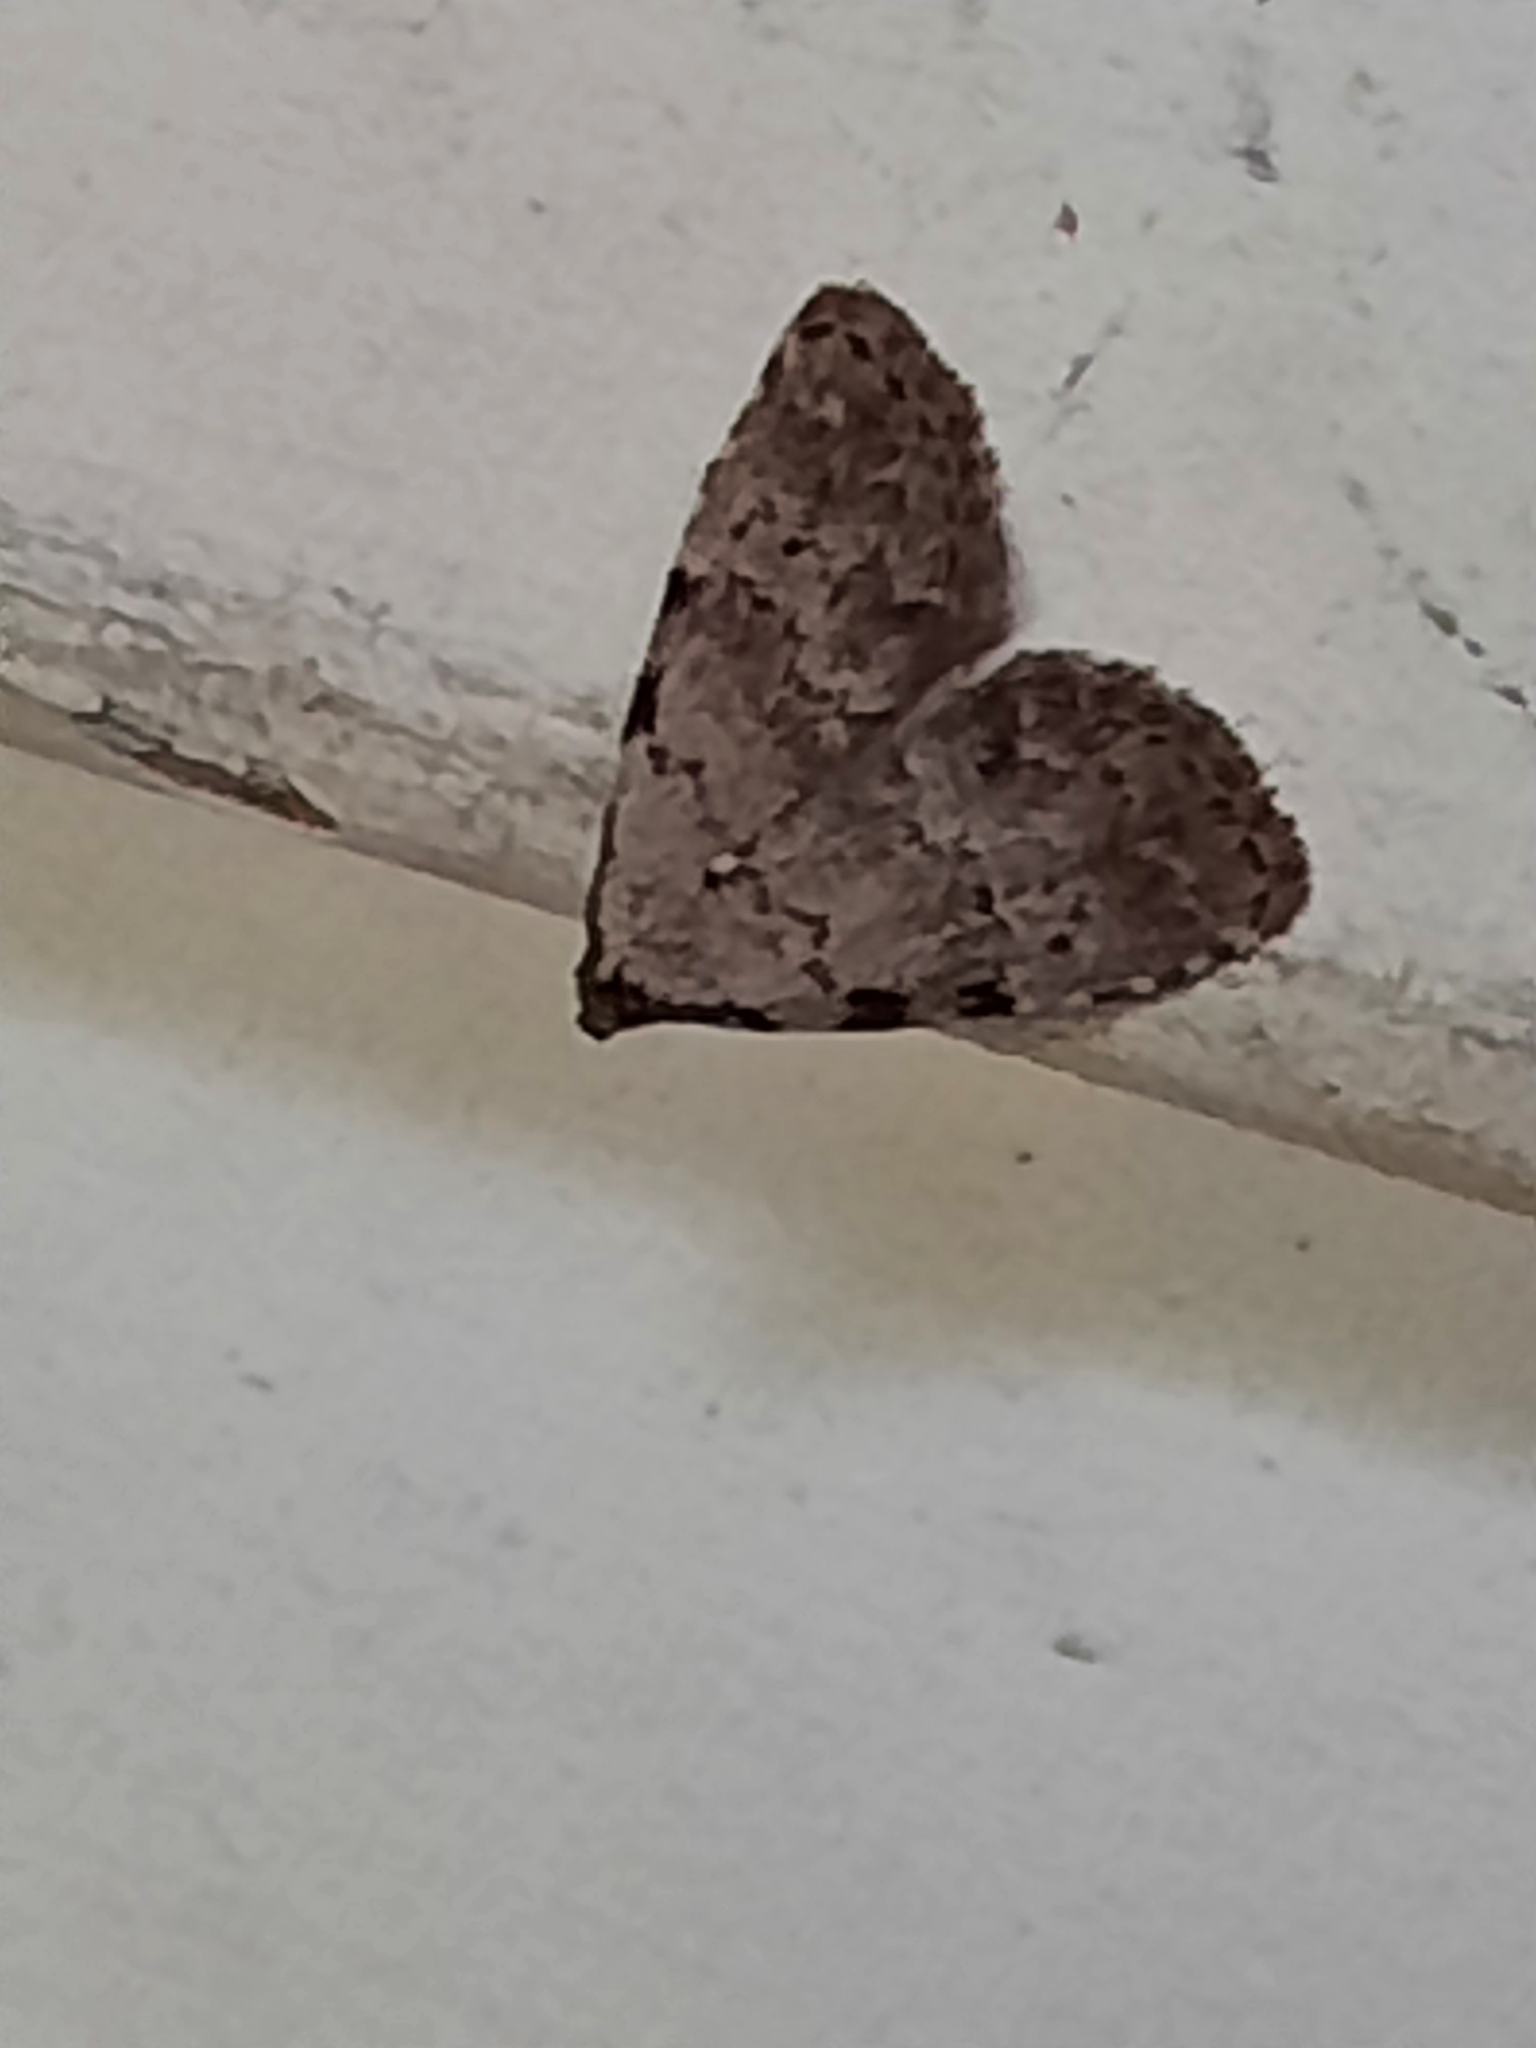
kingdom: Animalia
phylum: Arthropoda
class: Insecta
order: Lepidoptera
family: Erebidae
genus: Dyspyralis
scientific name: Dyspyralis puncticosta
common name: Spot-edged dyspyralis moth
